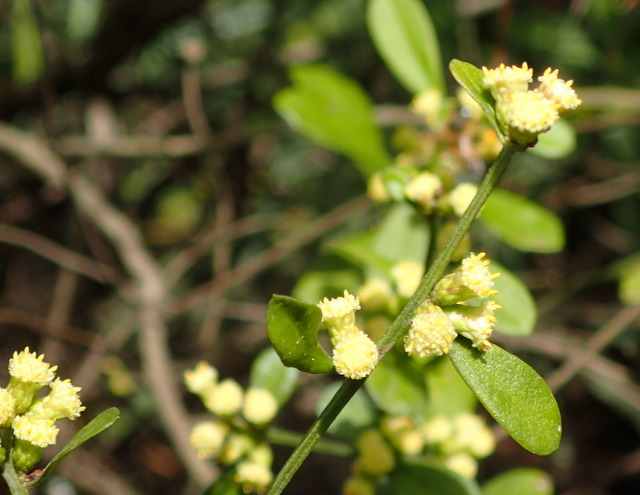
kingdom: Plantae
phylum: Tracheophyta
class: Magnoliopsida
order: Asterales
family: Asteraceae
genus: Baccharis
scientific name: Baccharis glomeruliflora
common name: Silverling groundsel bush
